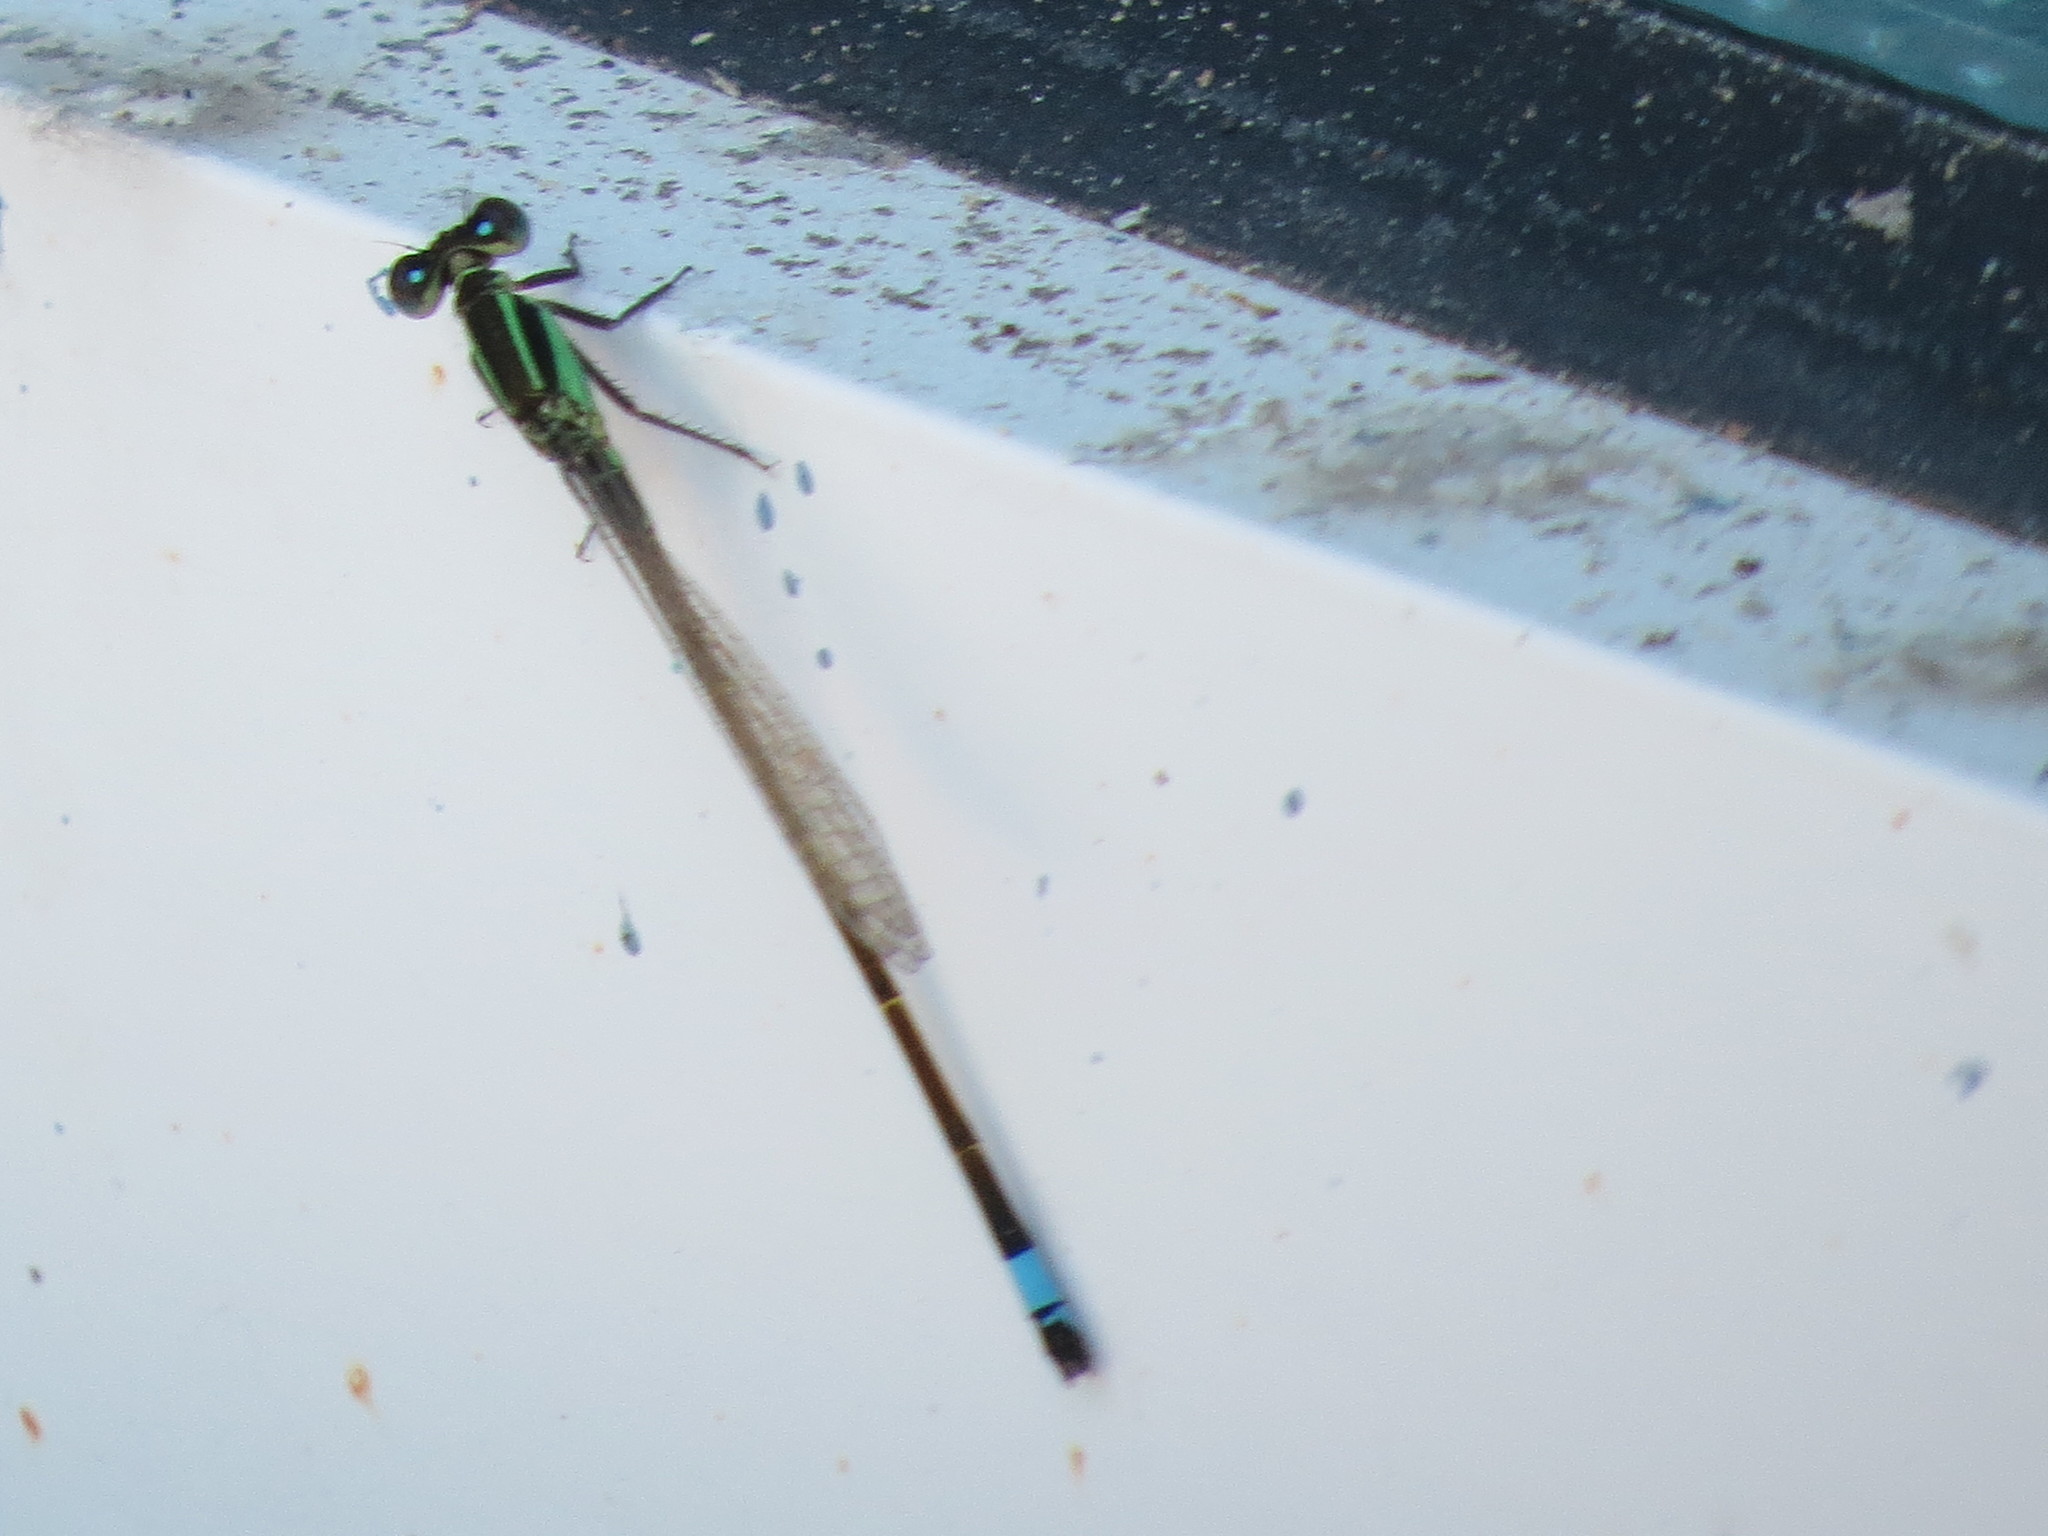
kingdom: Animalia
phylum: Arthropoda
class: Insecta
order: Odonata
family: Coenagrionidae
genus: Ischnura
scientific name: Ischnura ramburii
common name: Rambur's forktail
